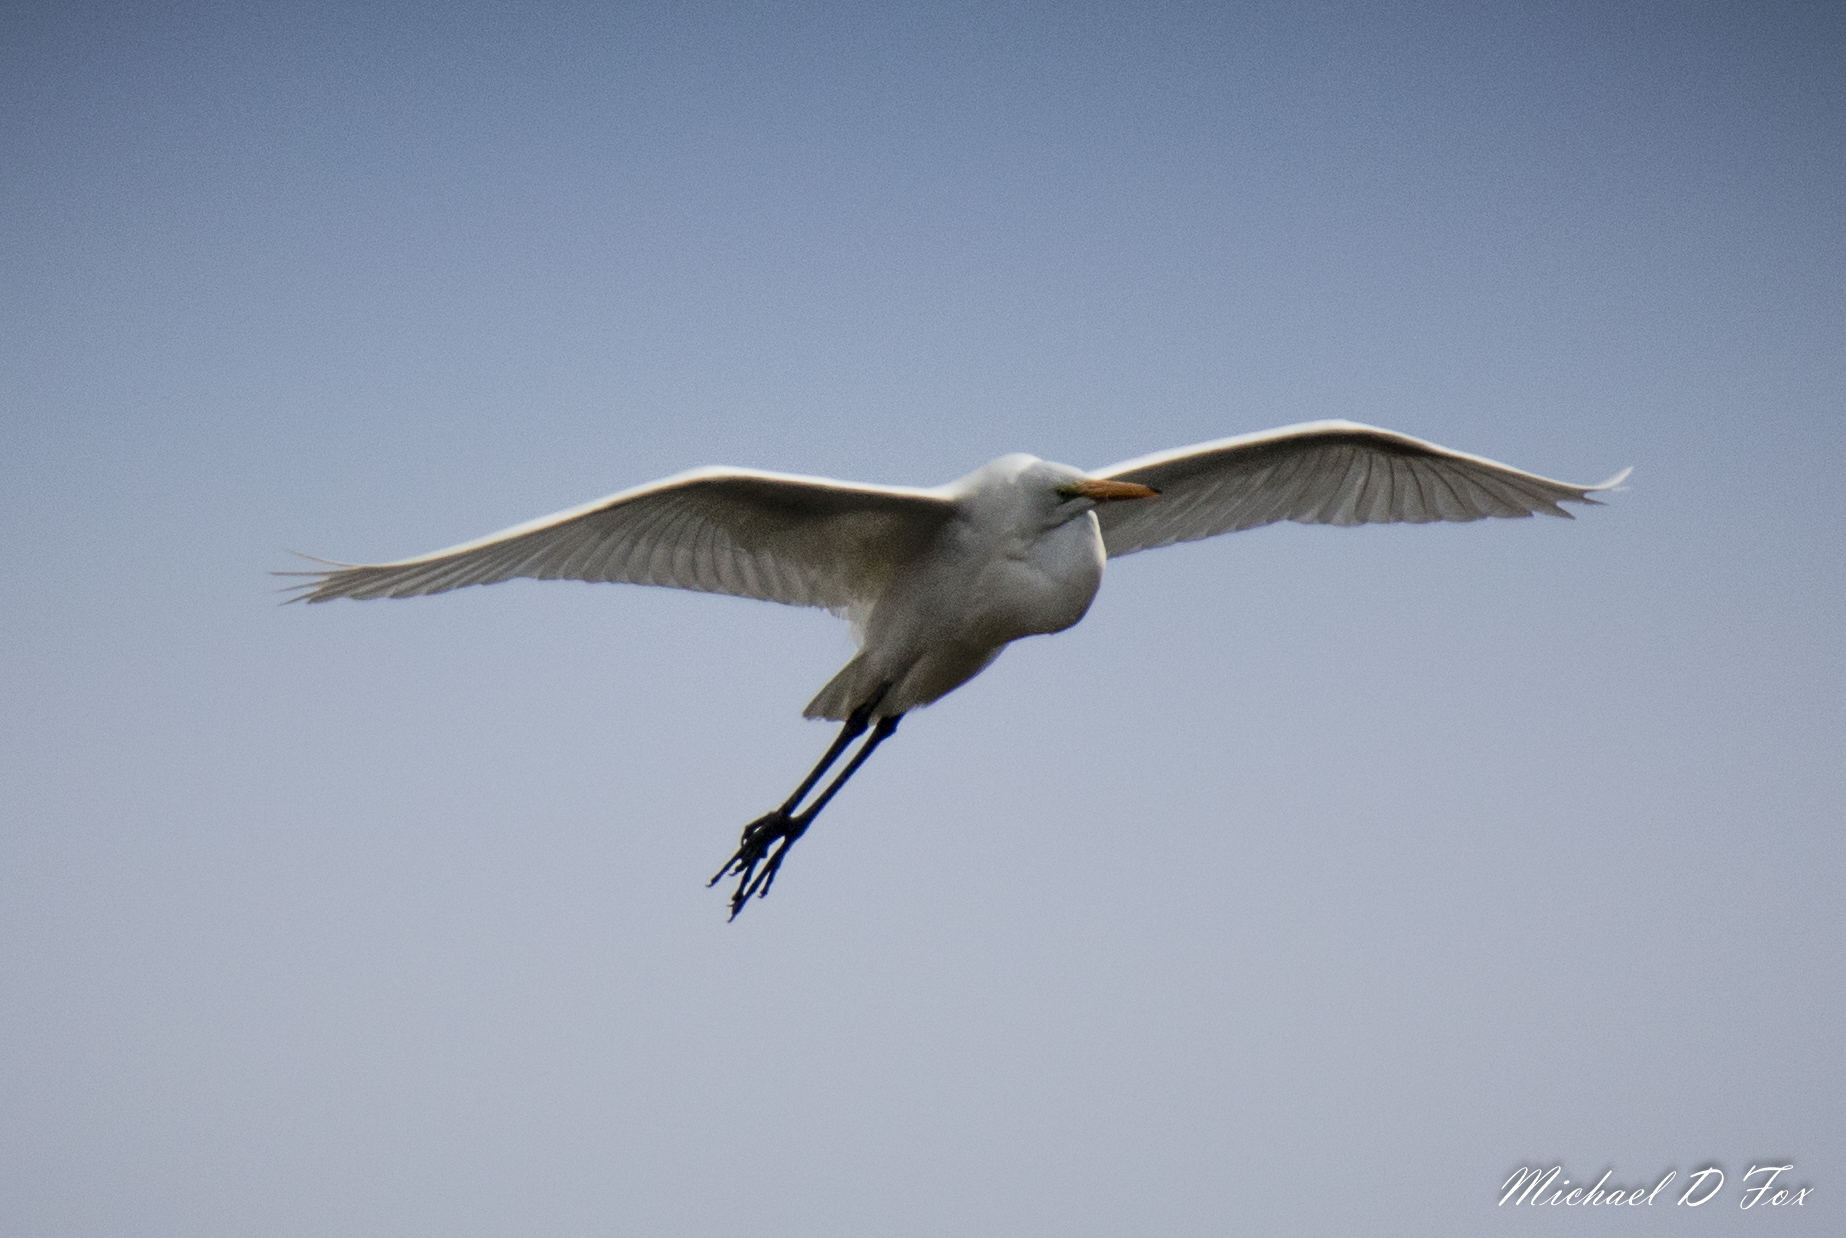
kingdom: Animalia
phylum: Chordata
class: Aves
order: Pelecaniformes
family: Ardeidae
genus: Ardea
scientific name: Ardea alba
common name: Great egret
